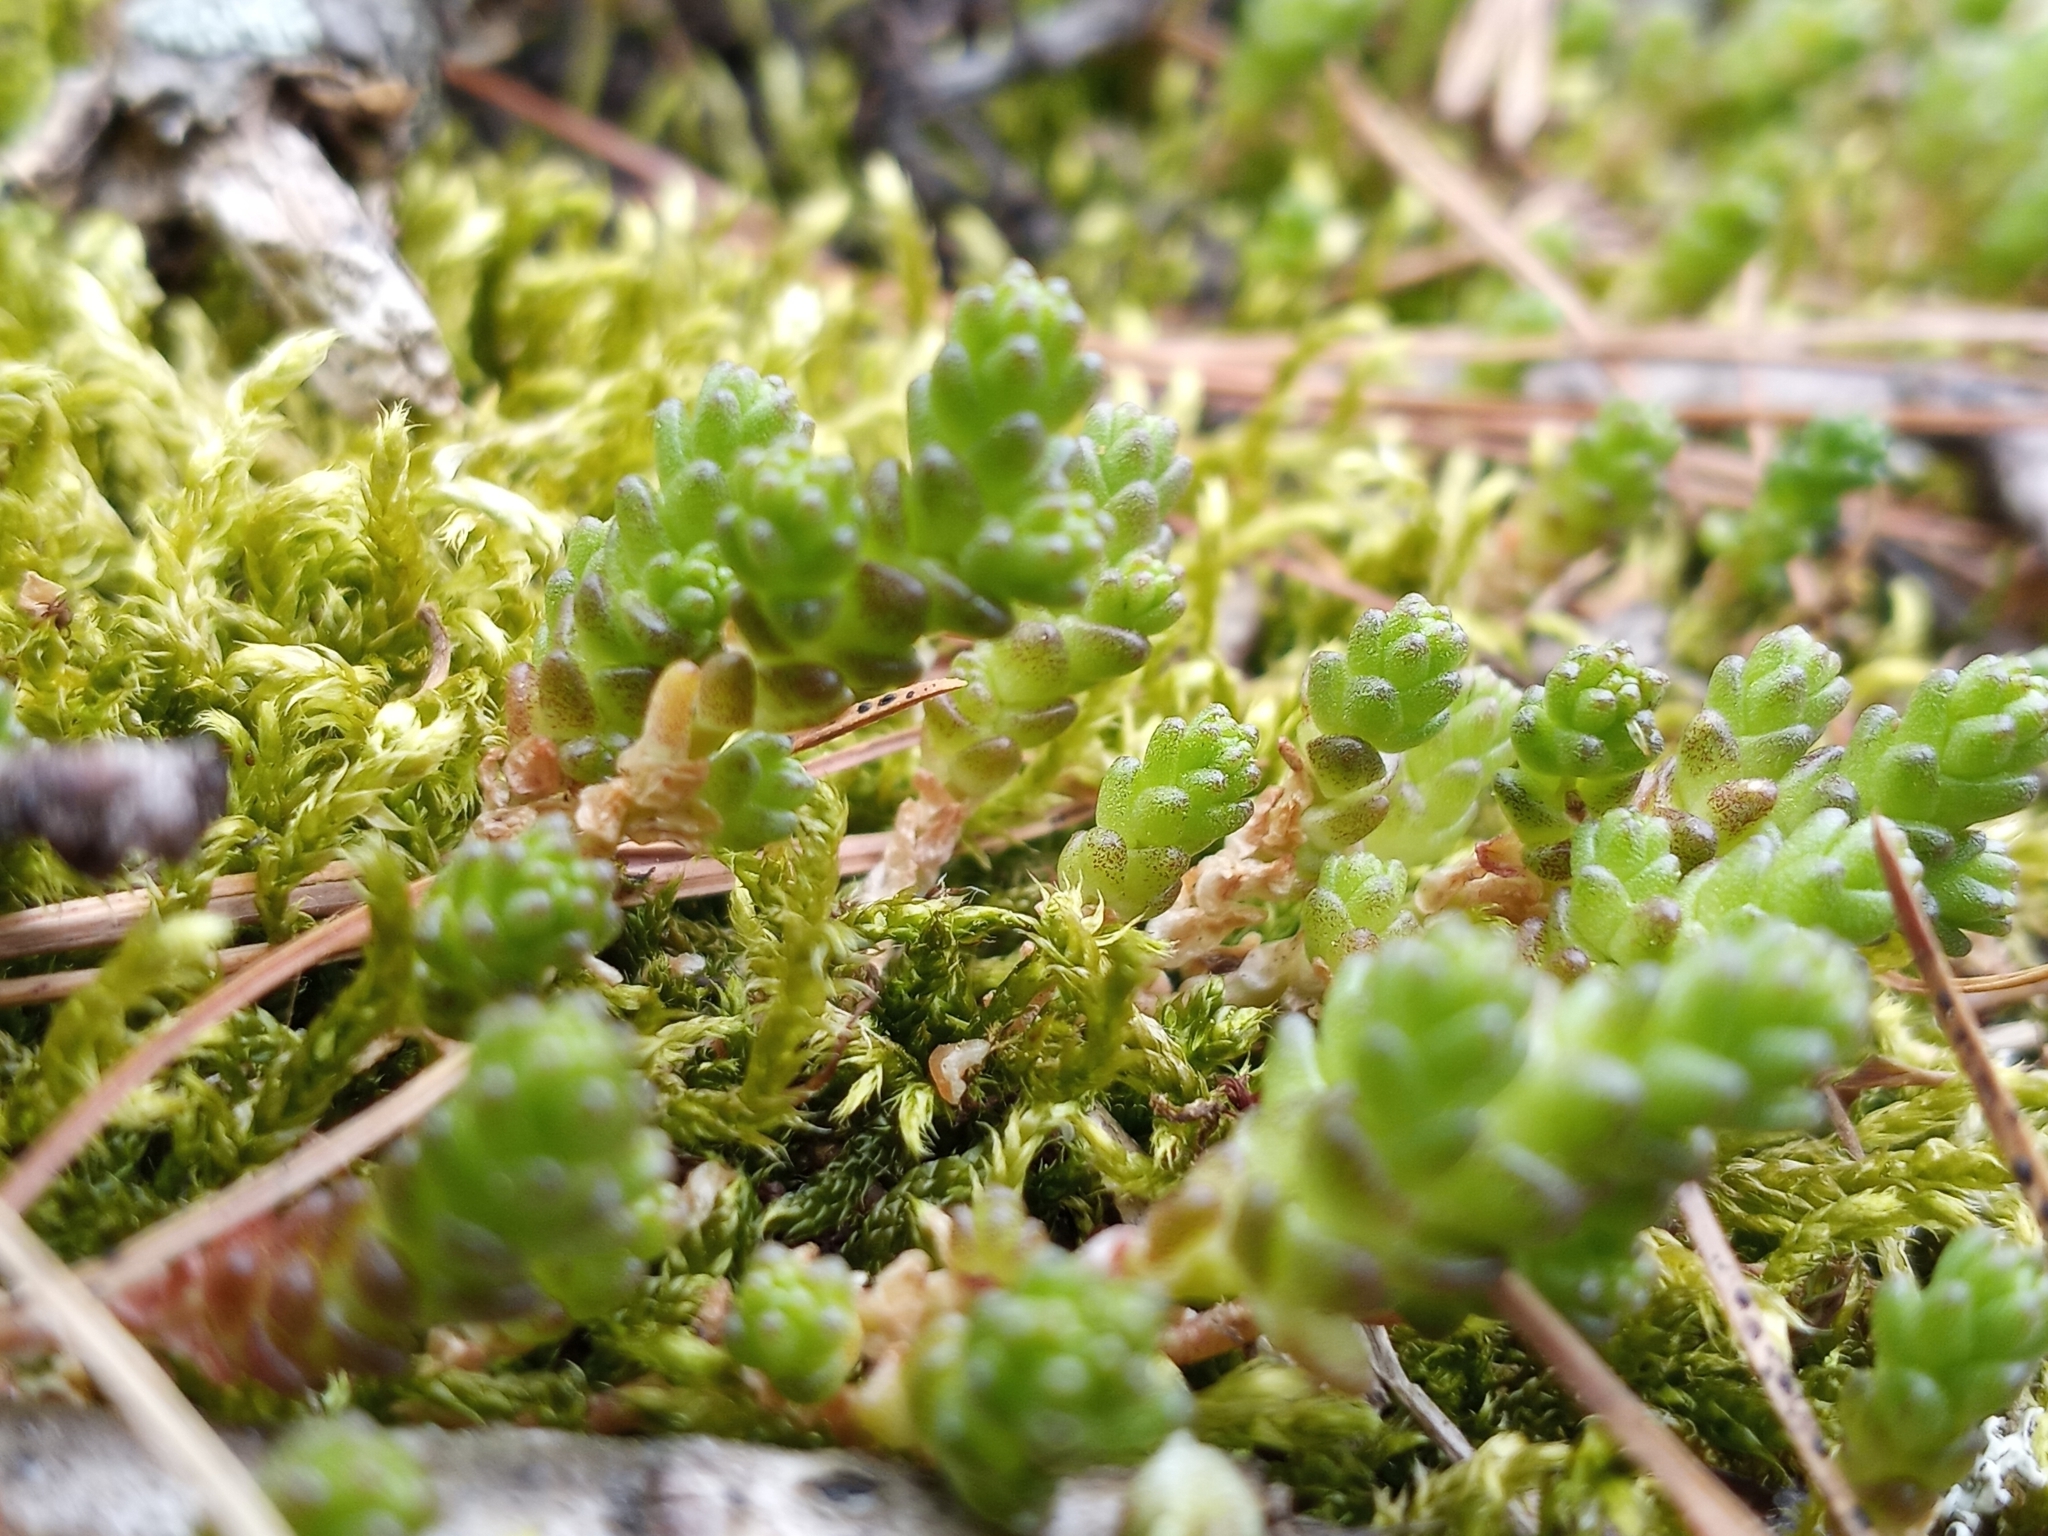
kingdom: Plantae
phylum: Tracheophyta
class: Magnoliopsida
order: Saxifragales
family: Crassulaceae
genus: Sedum
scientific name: Sedum acre
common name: Biting stonecrop
